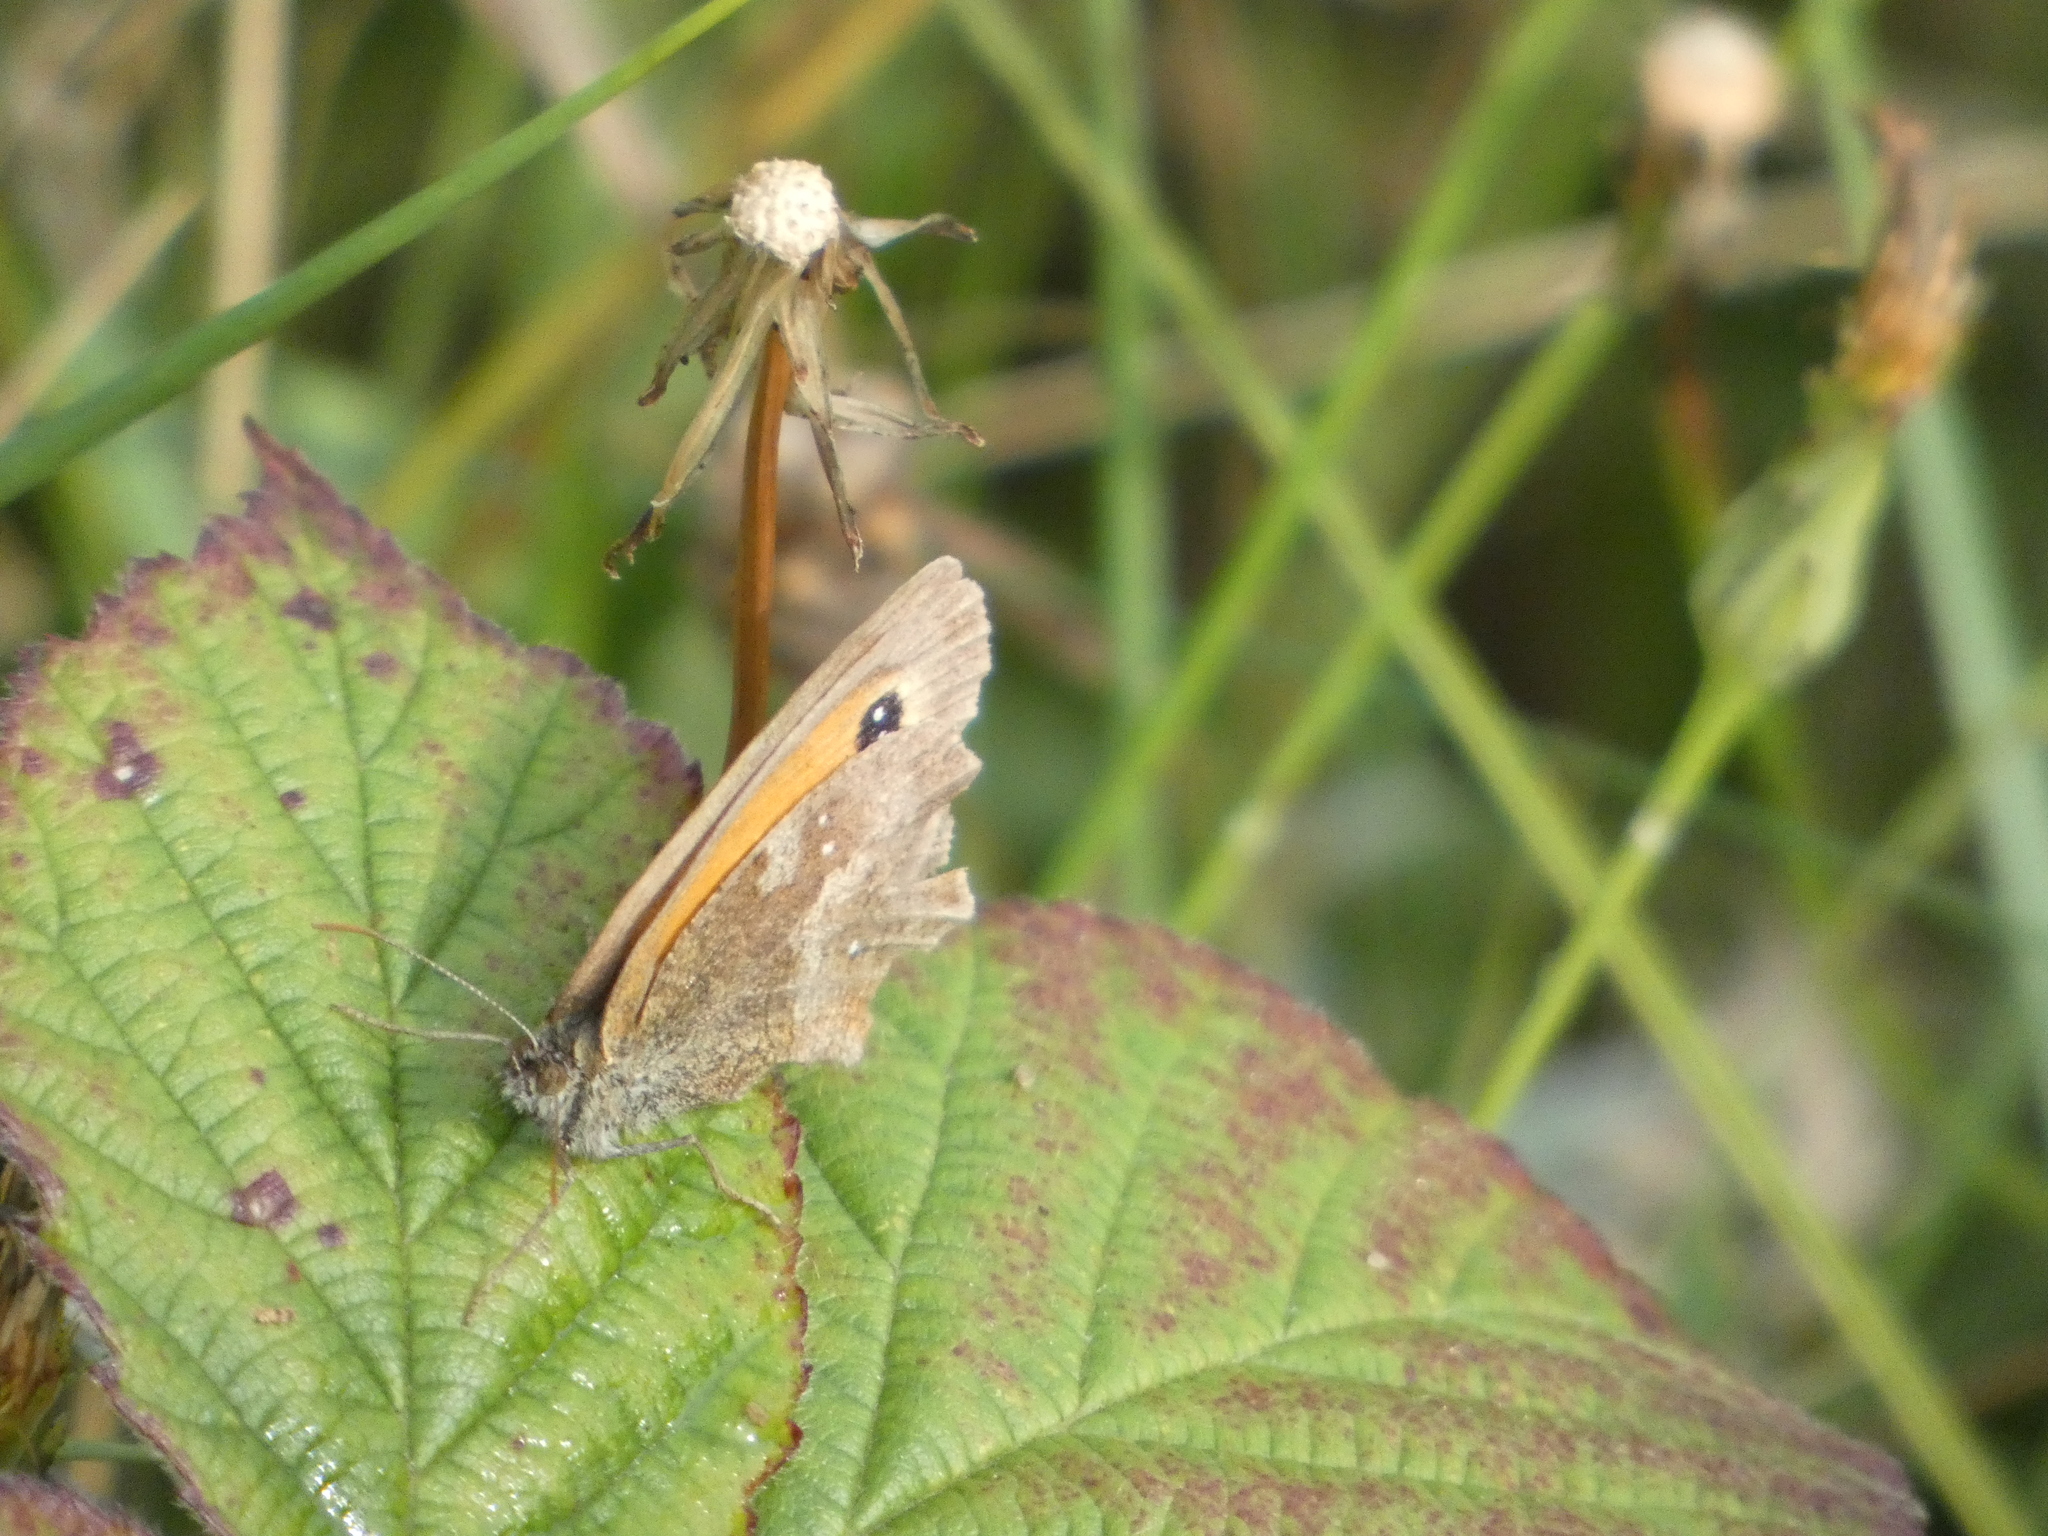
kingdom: Animalia
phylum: Arthropoda
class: Insecta
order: Lepidoptera
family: Nymphalidae
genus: Pyronia
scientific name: Pyronia tithonus
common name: Gatekeeper
